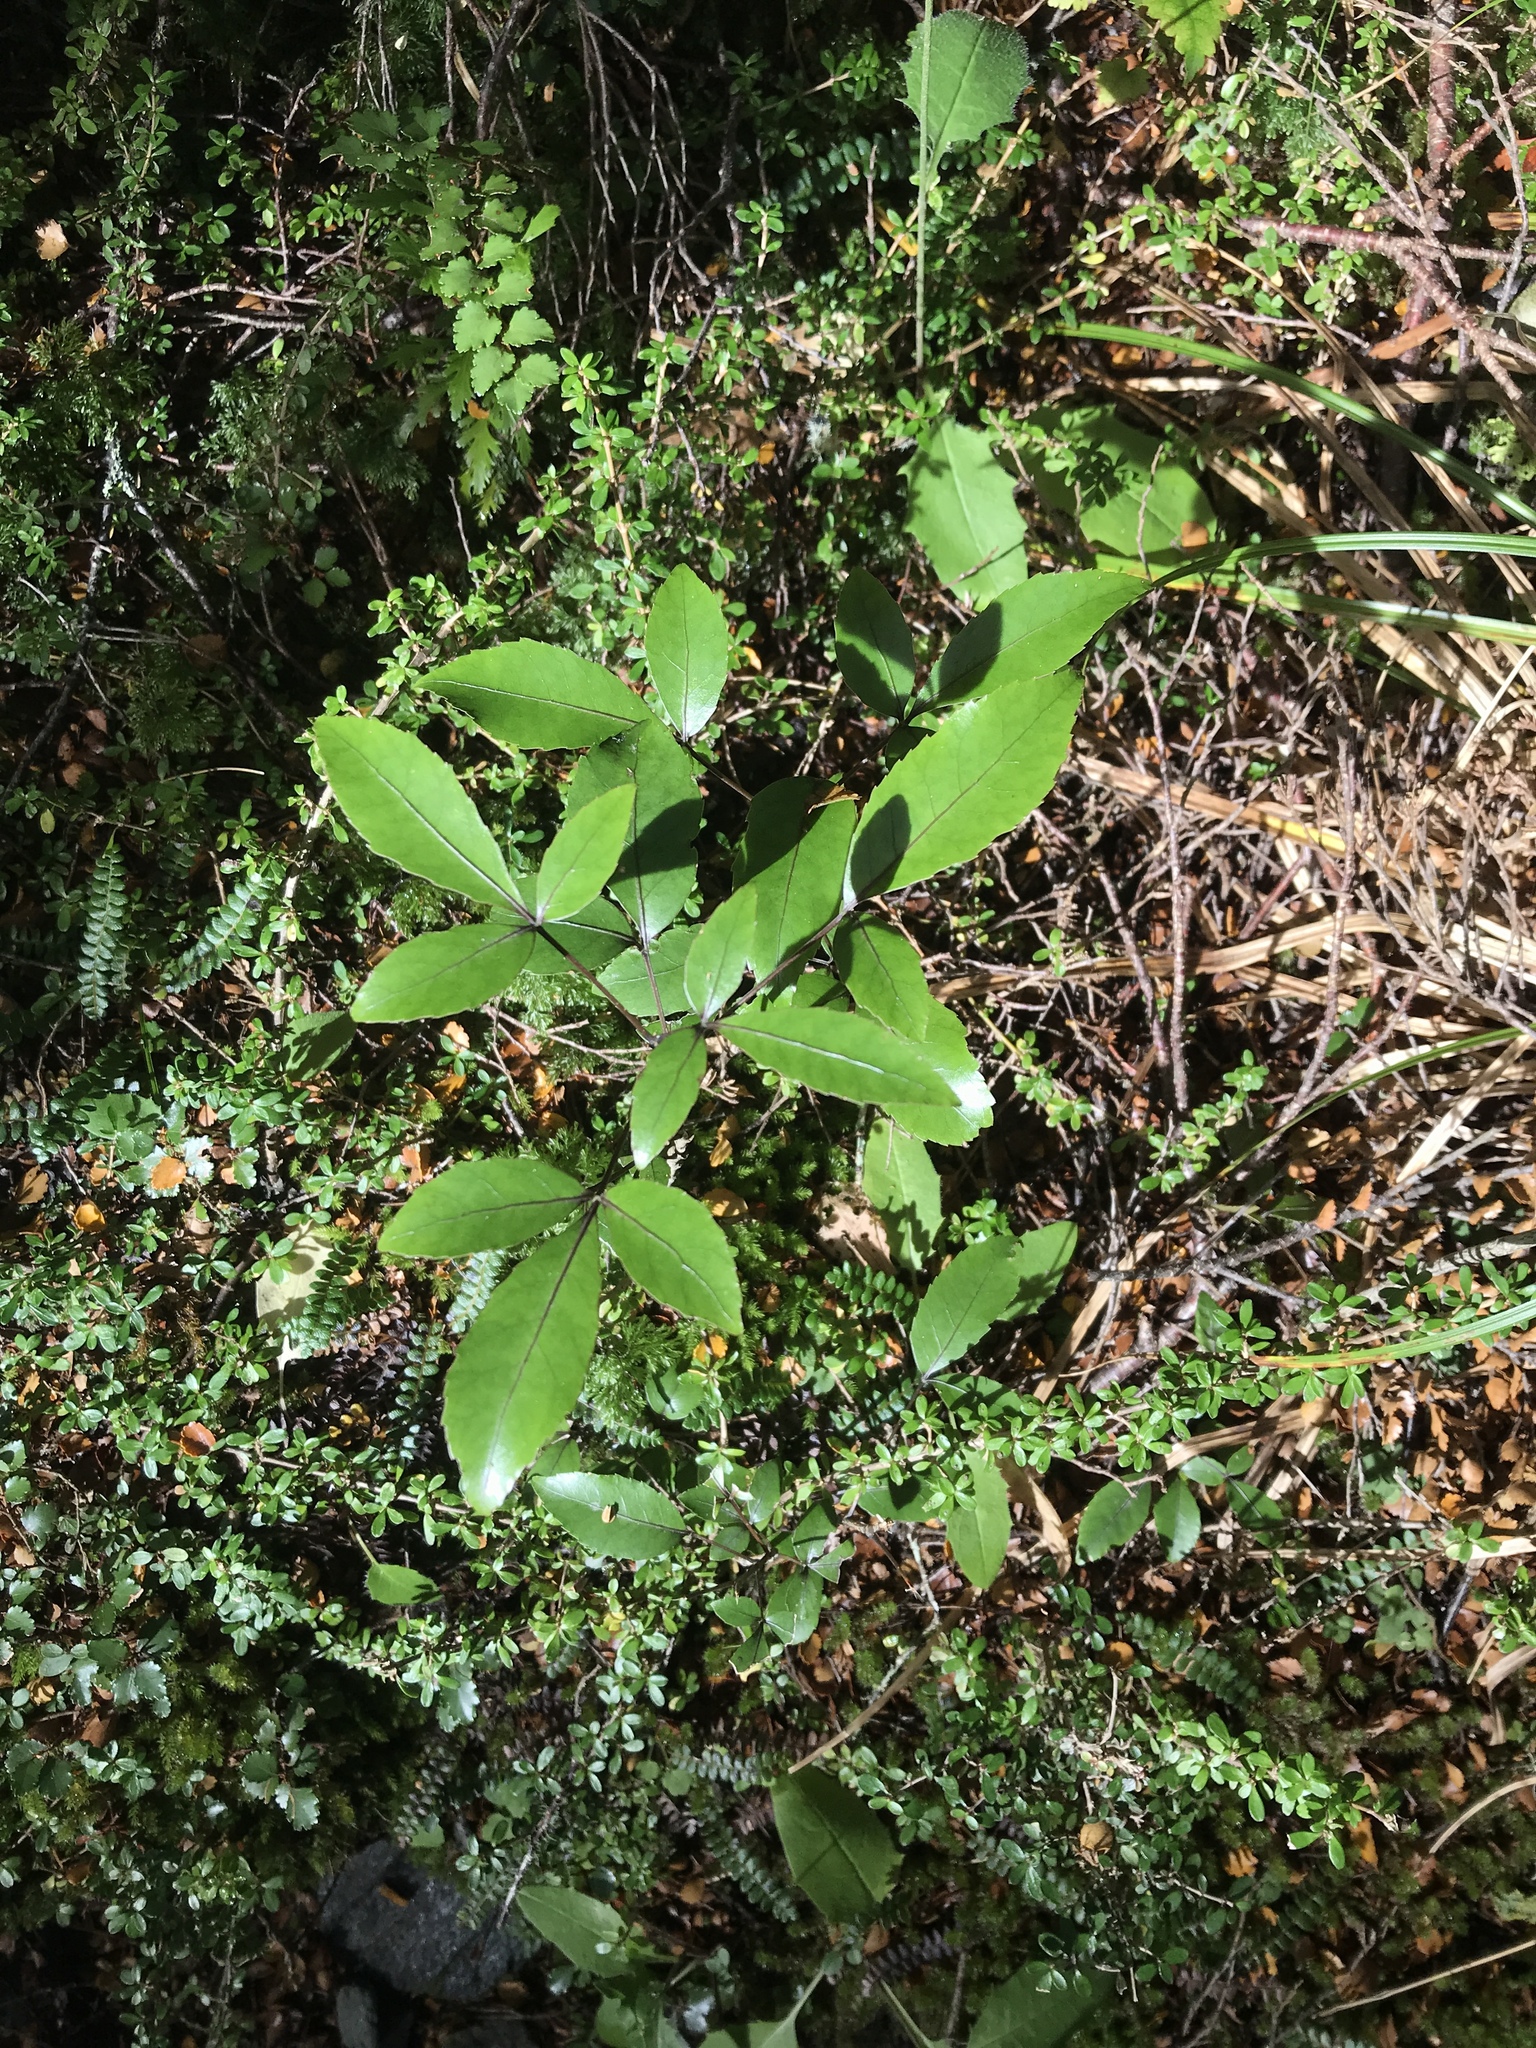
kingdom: Plantae
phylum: Tracheophyta
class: Magnoliopsida
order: Apiales
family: Araliaceae
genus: Raukaua
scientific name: Raukaua simplex
